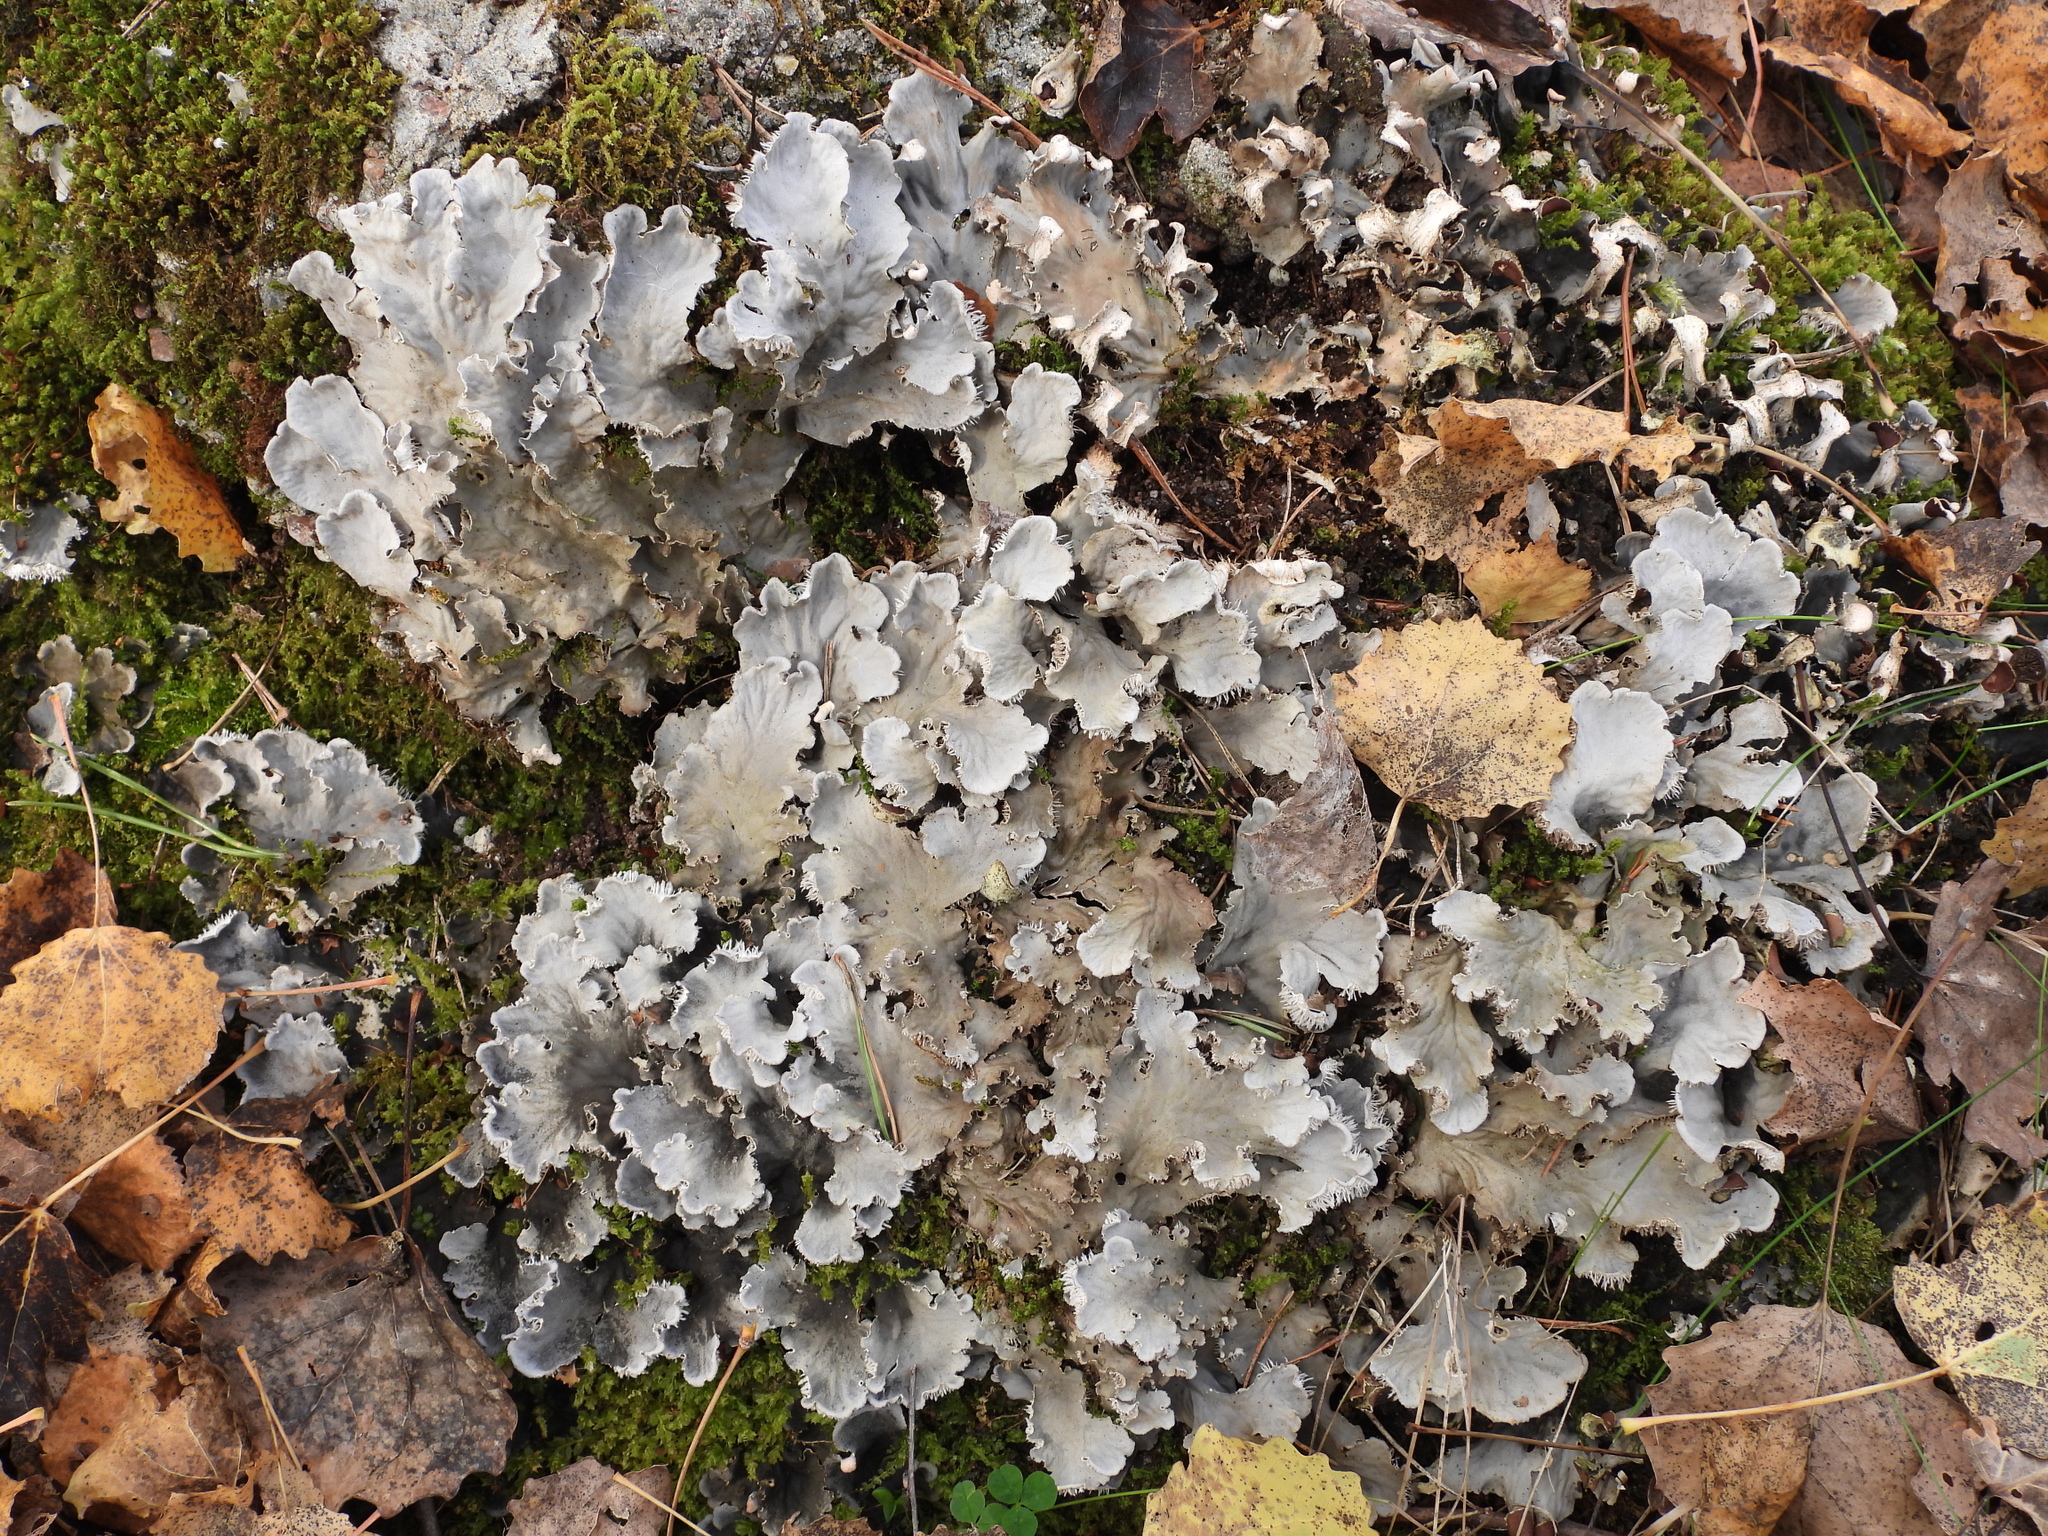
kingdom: Fungi
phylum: Ascomycota
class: Lecanoromycetes
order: Peltigerales
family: Peltigeraceae
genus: Peltigera
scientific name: Peltigera canina
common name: Dog pelt lichen
